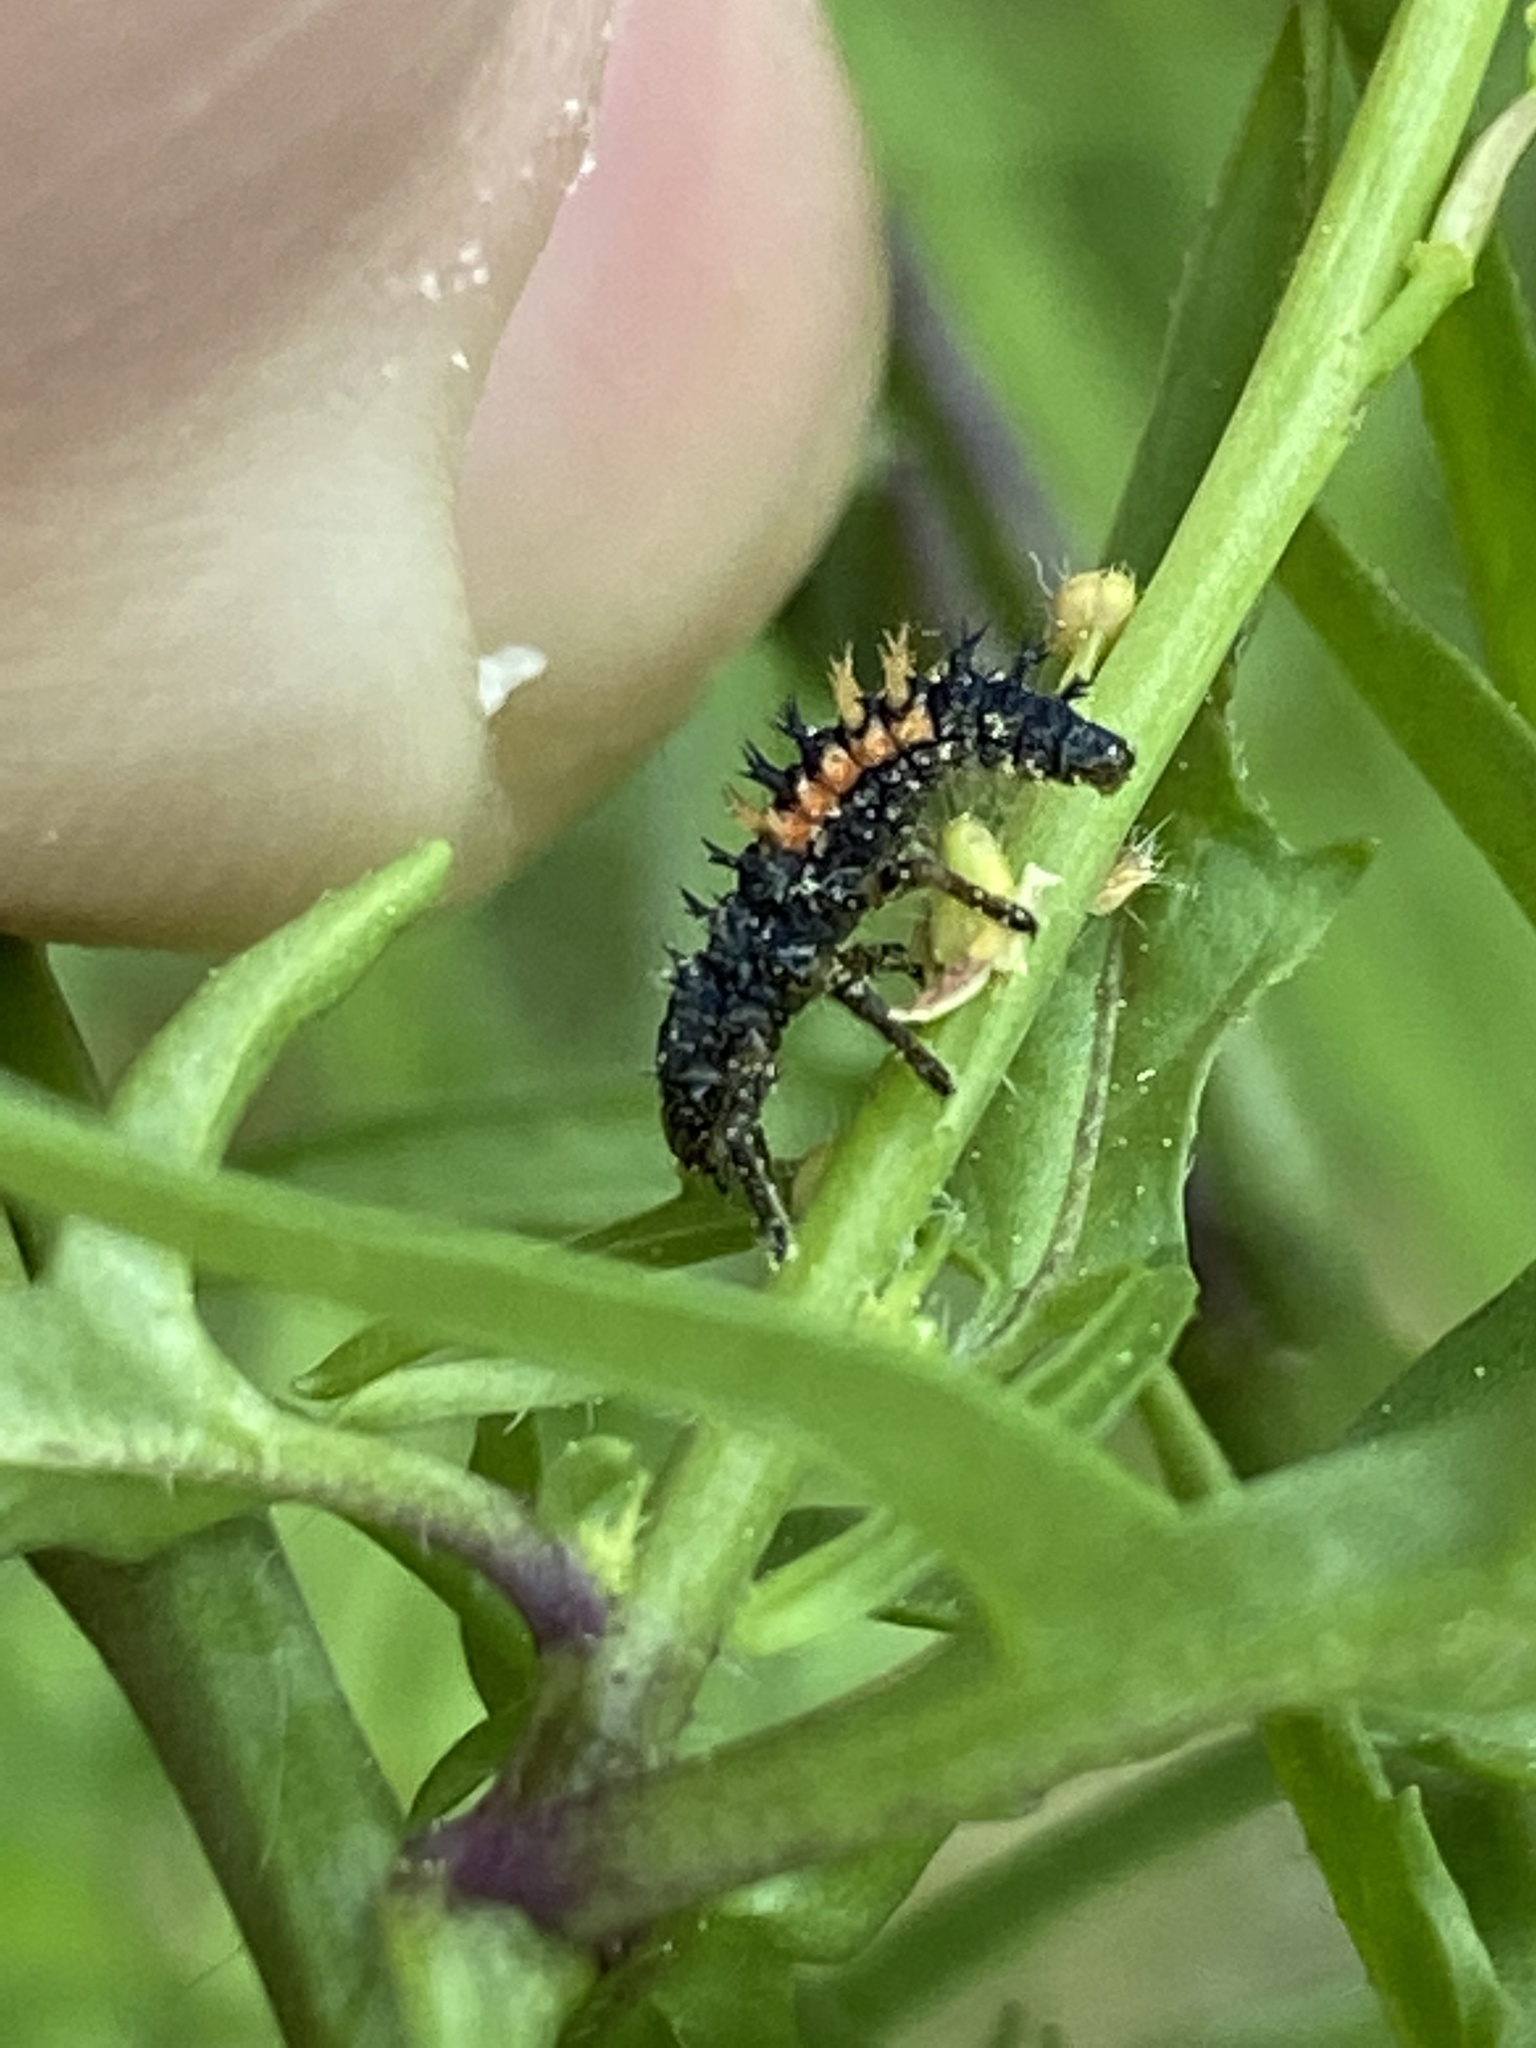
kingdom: Animalia
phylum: Arthropoda
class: Insecta
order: Coleoptera
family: Coccinellidae
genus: Harmonia
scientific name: Harmonia axyridis
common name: Harlequin ladybird
